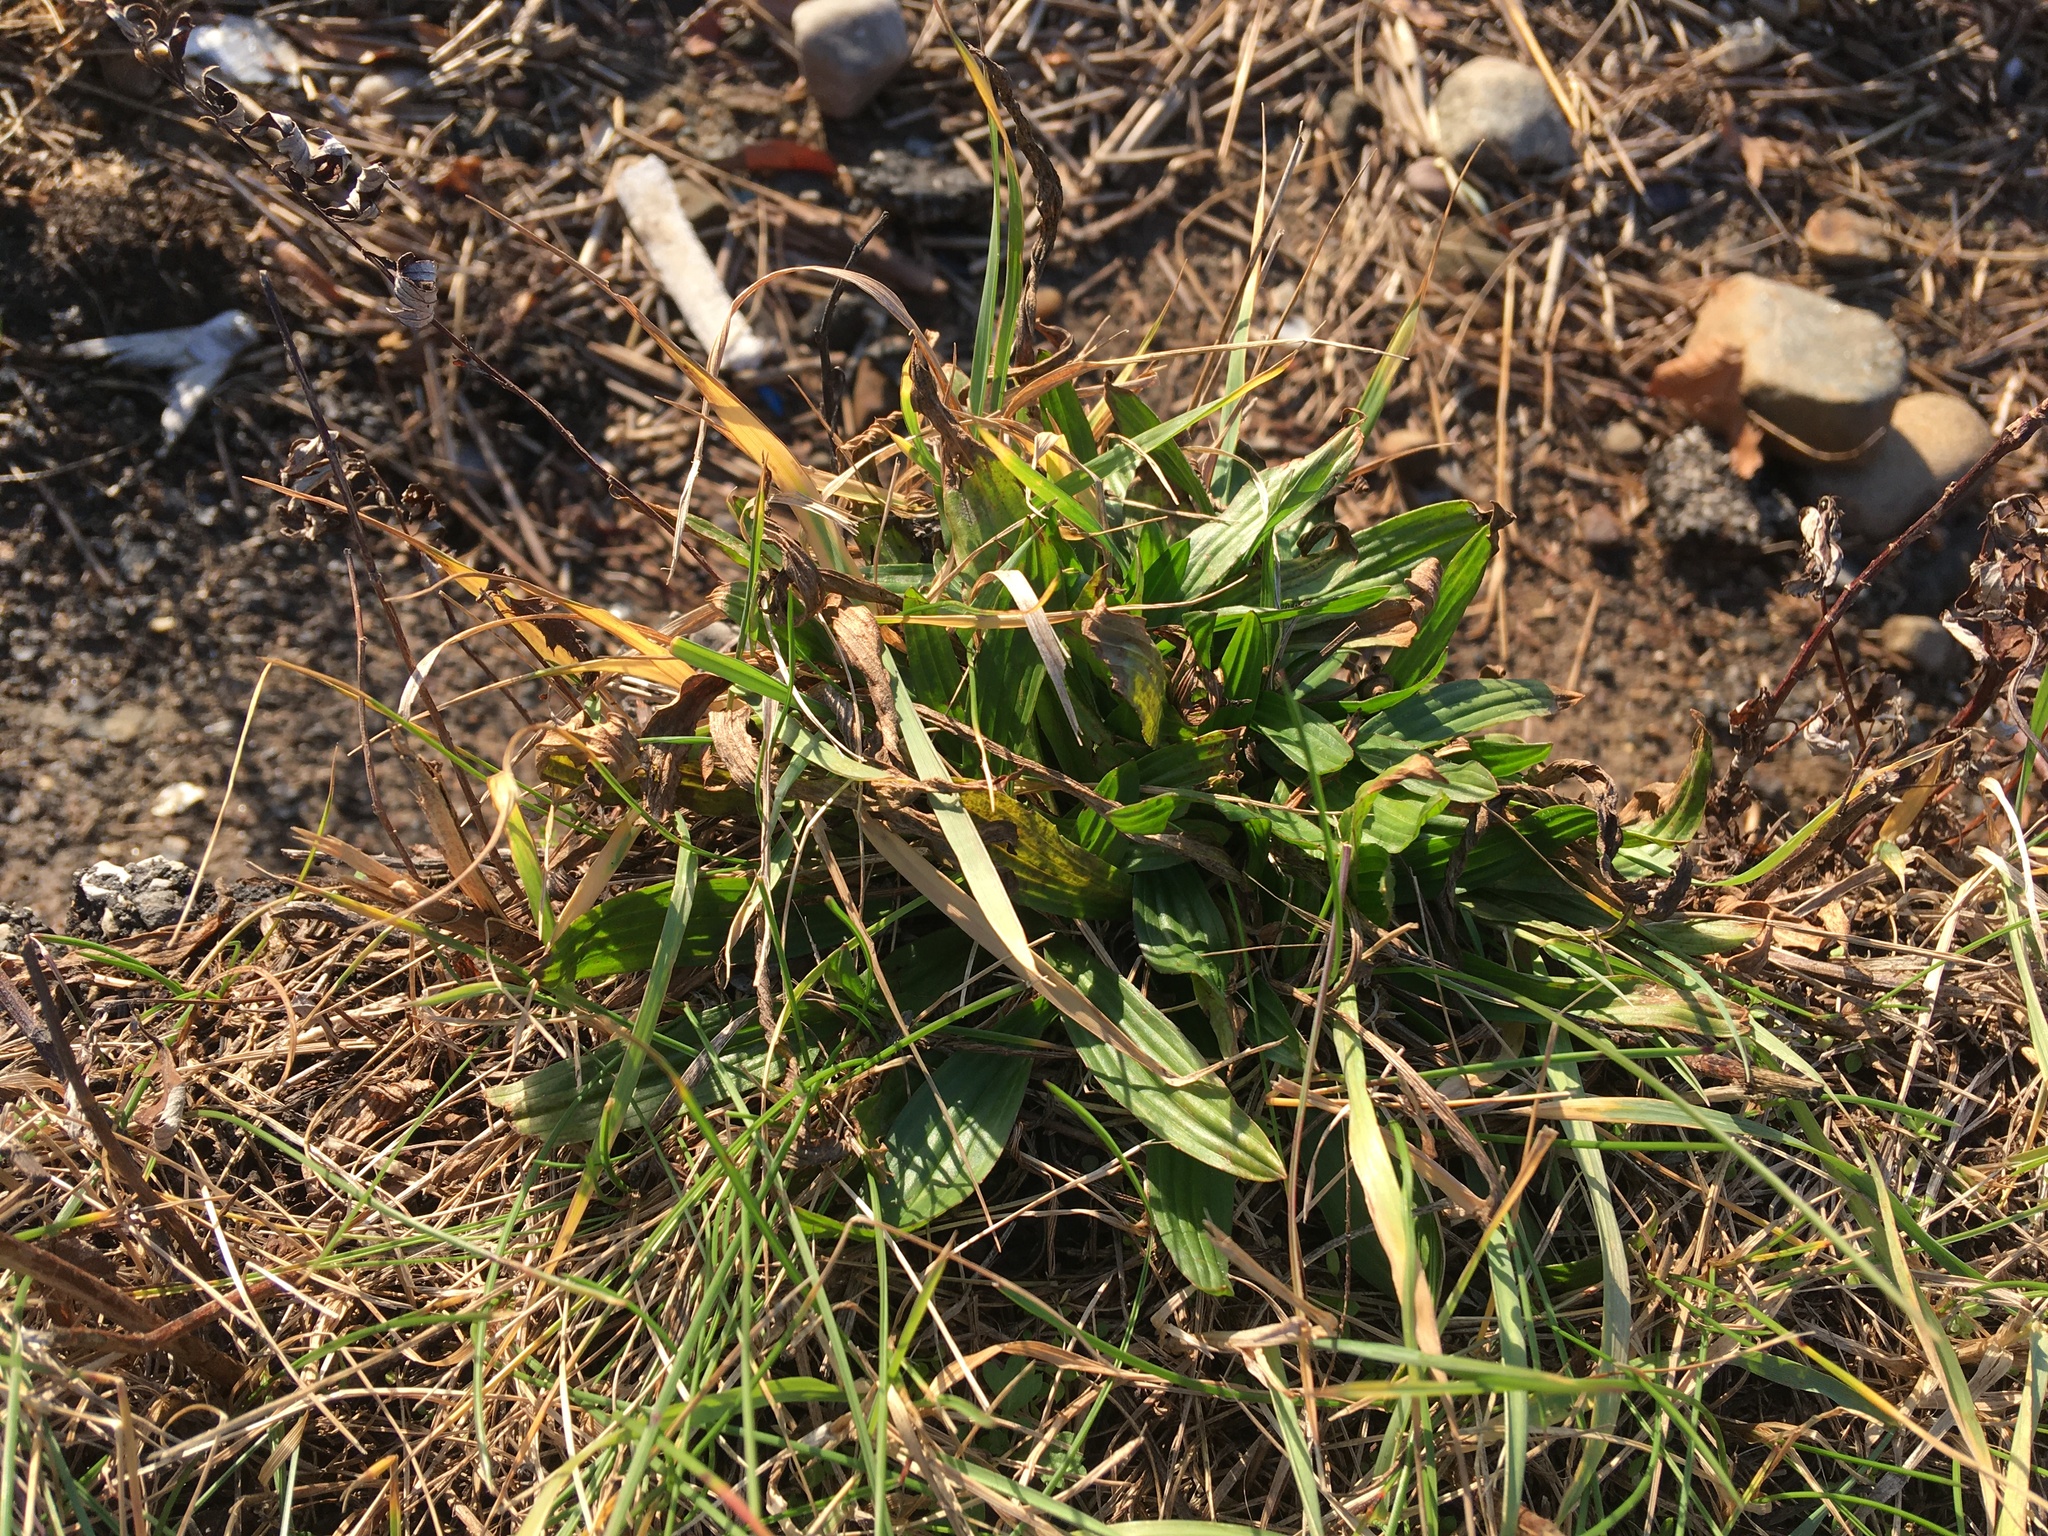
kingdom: Plantae
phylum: Tracheophyta
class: Magnoliopsida
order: Lamiales
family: Plantaginaceae
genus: Plantago
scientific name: Plantago lanceolata
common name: Ribwort plantain
